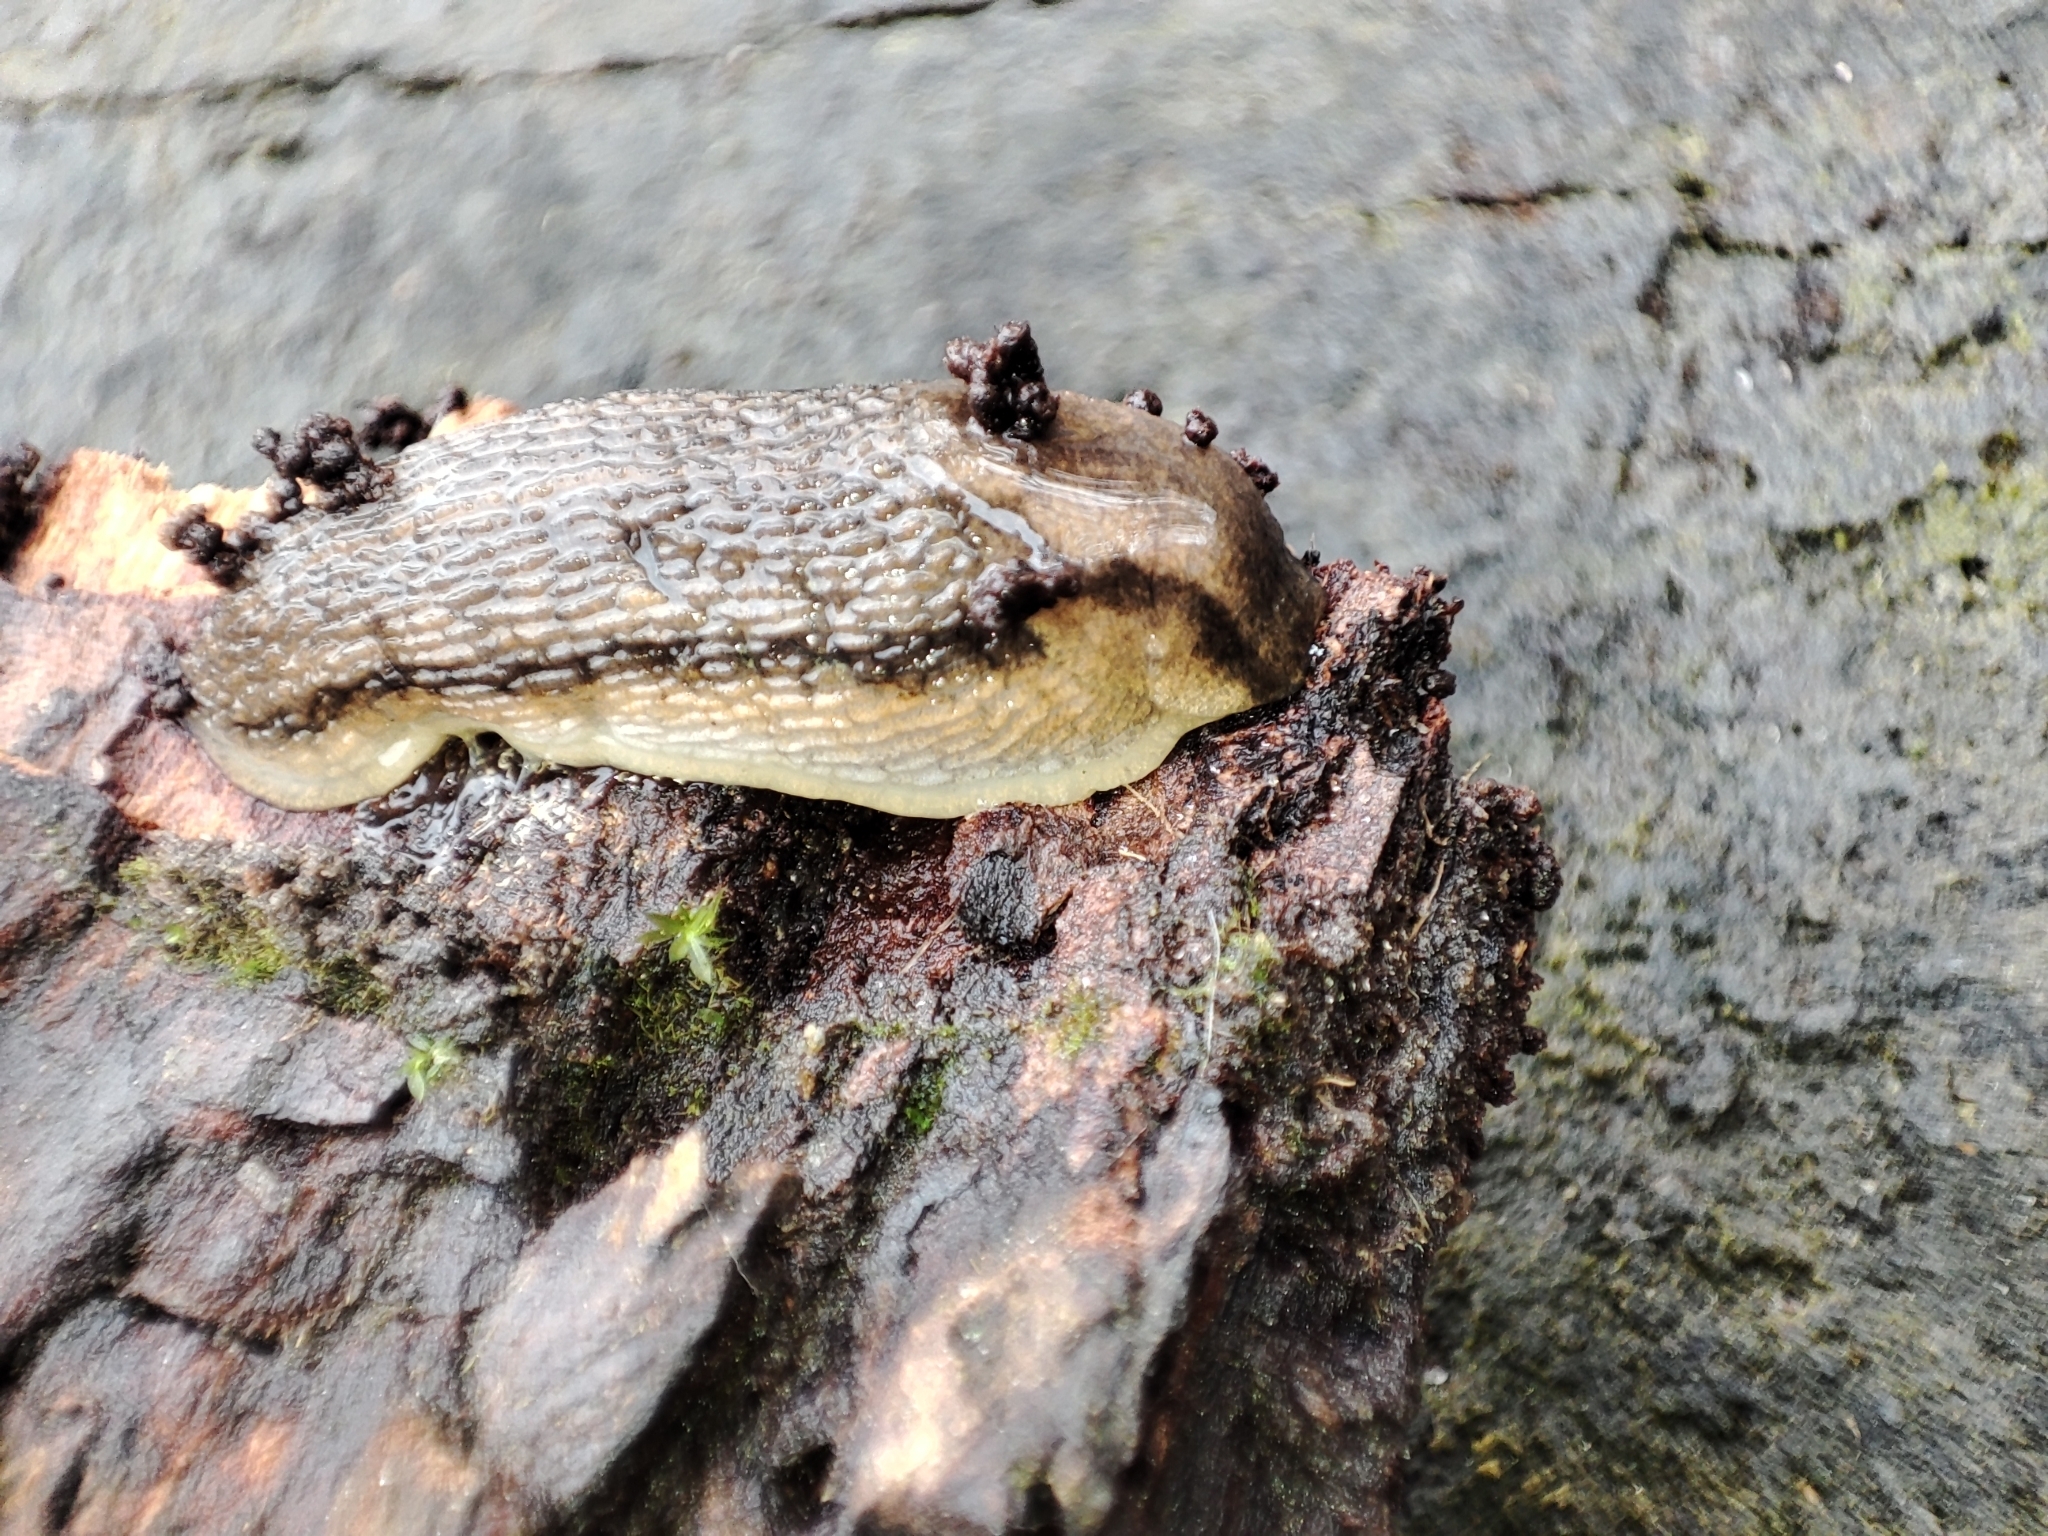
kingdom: Animalia
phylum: Mollusca
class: Gastropoda
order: Stylommatophora
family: Arionidae
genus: Arion
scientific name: Arion fasciatus
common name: Orange-banded arion
